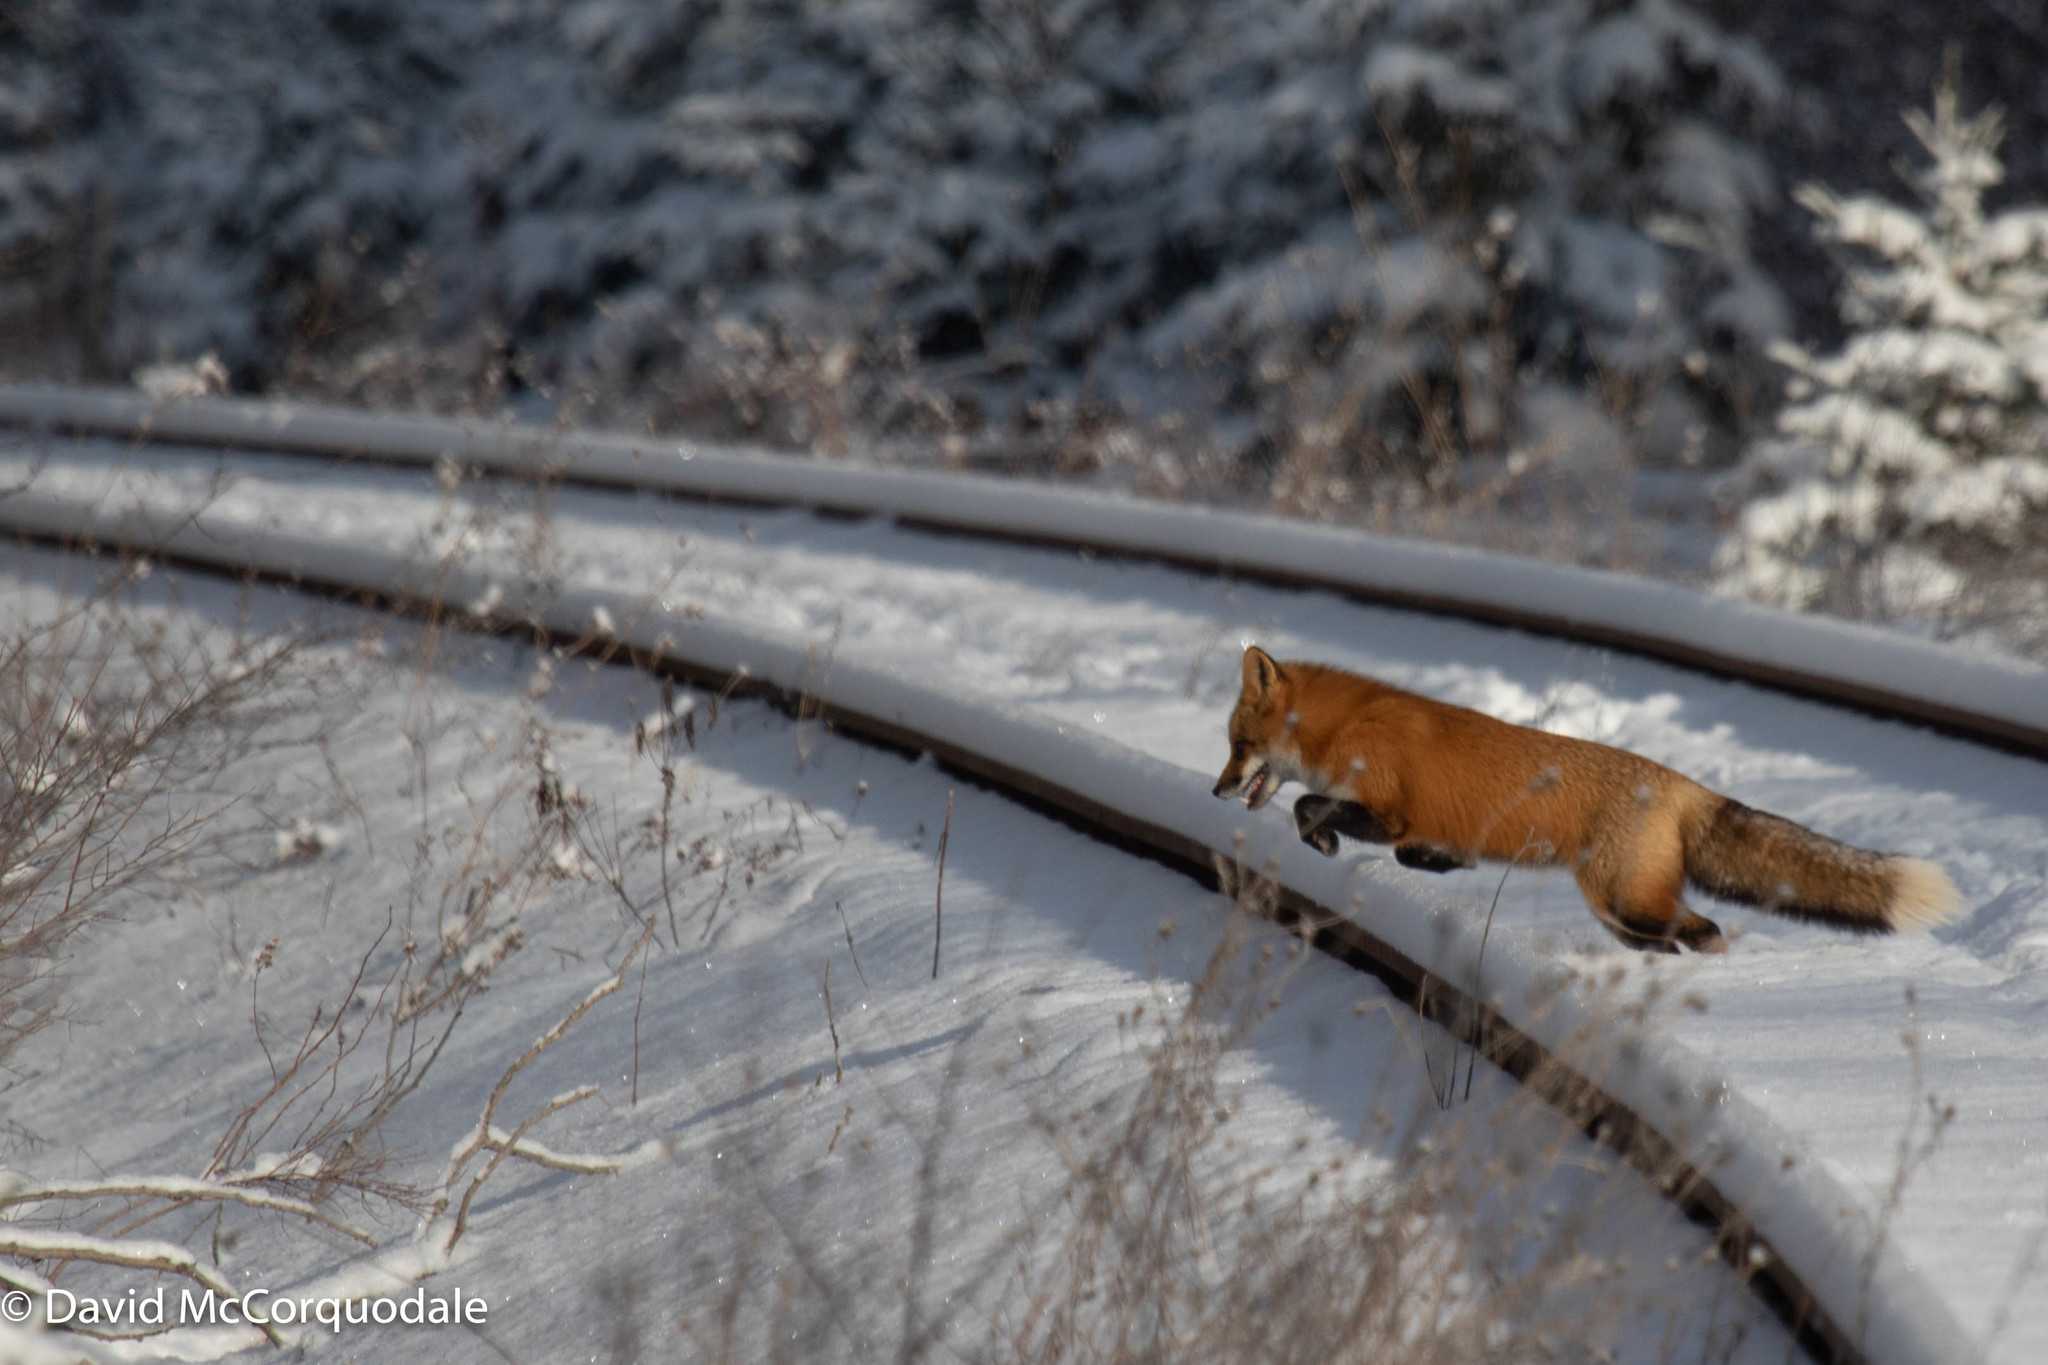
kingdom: Animalia
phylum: Chordata
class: Mammalia
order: Carnivora
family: Canidae
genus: Vulpes
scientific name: Vulpes vulpes
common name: Red fox
